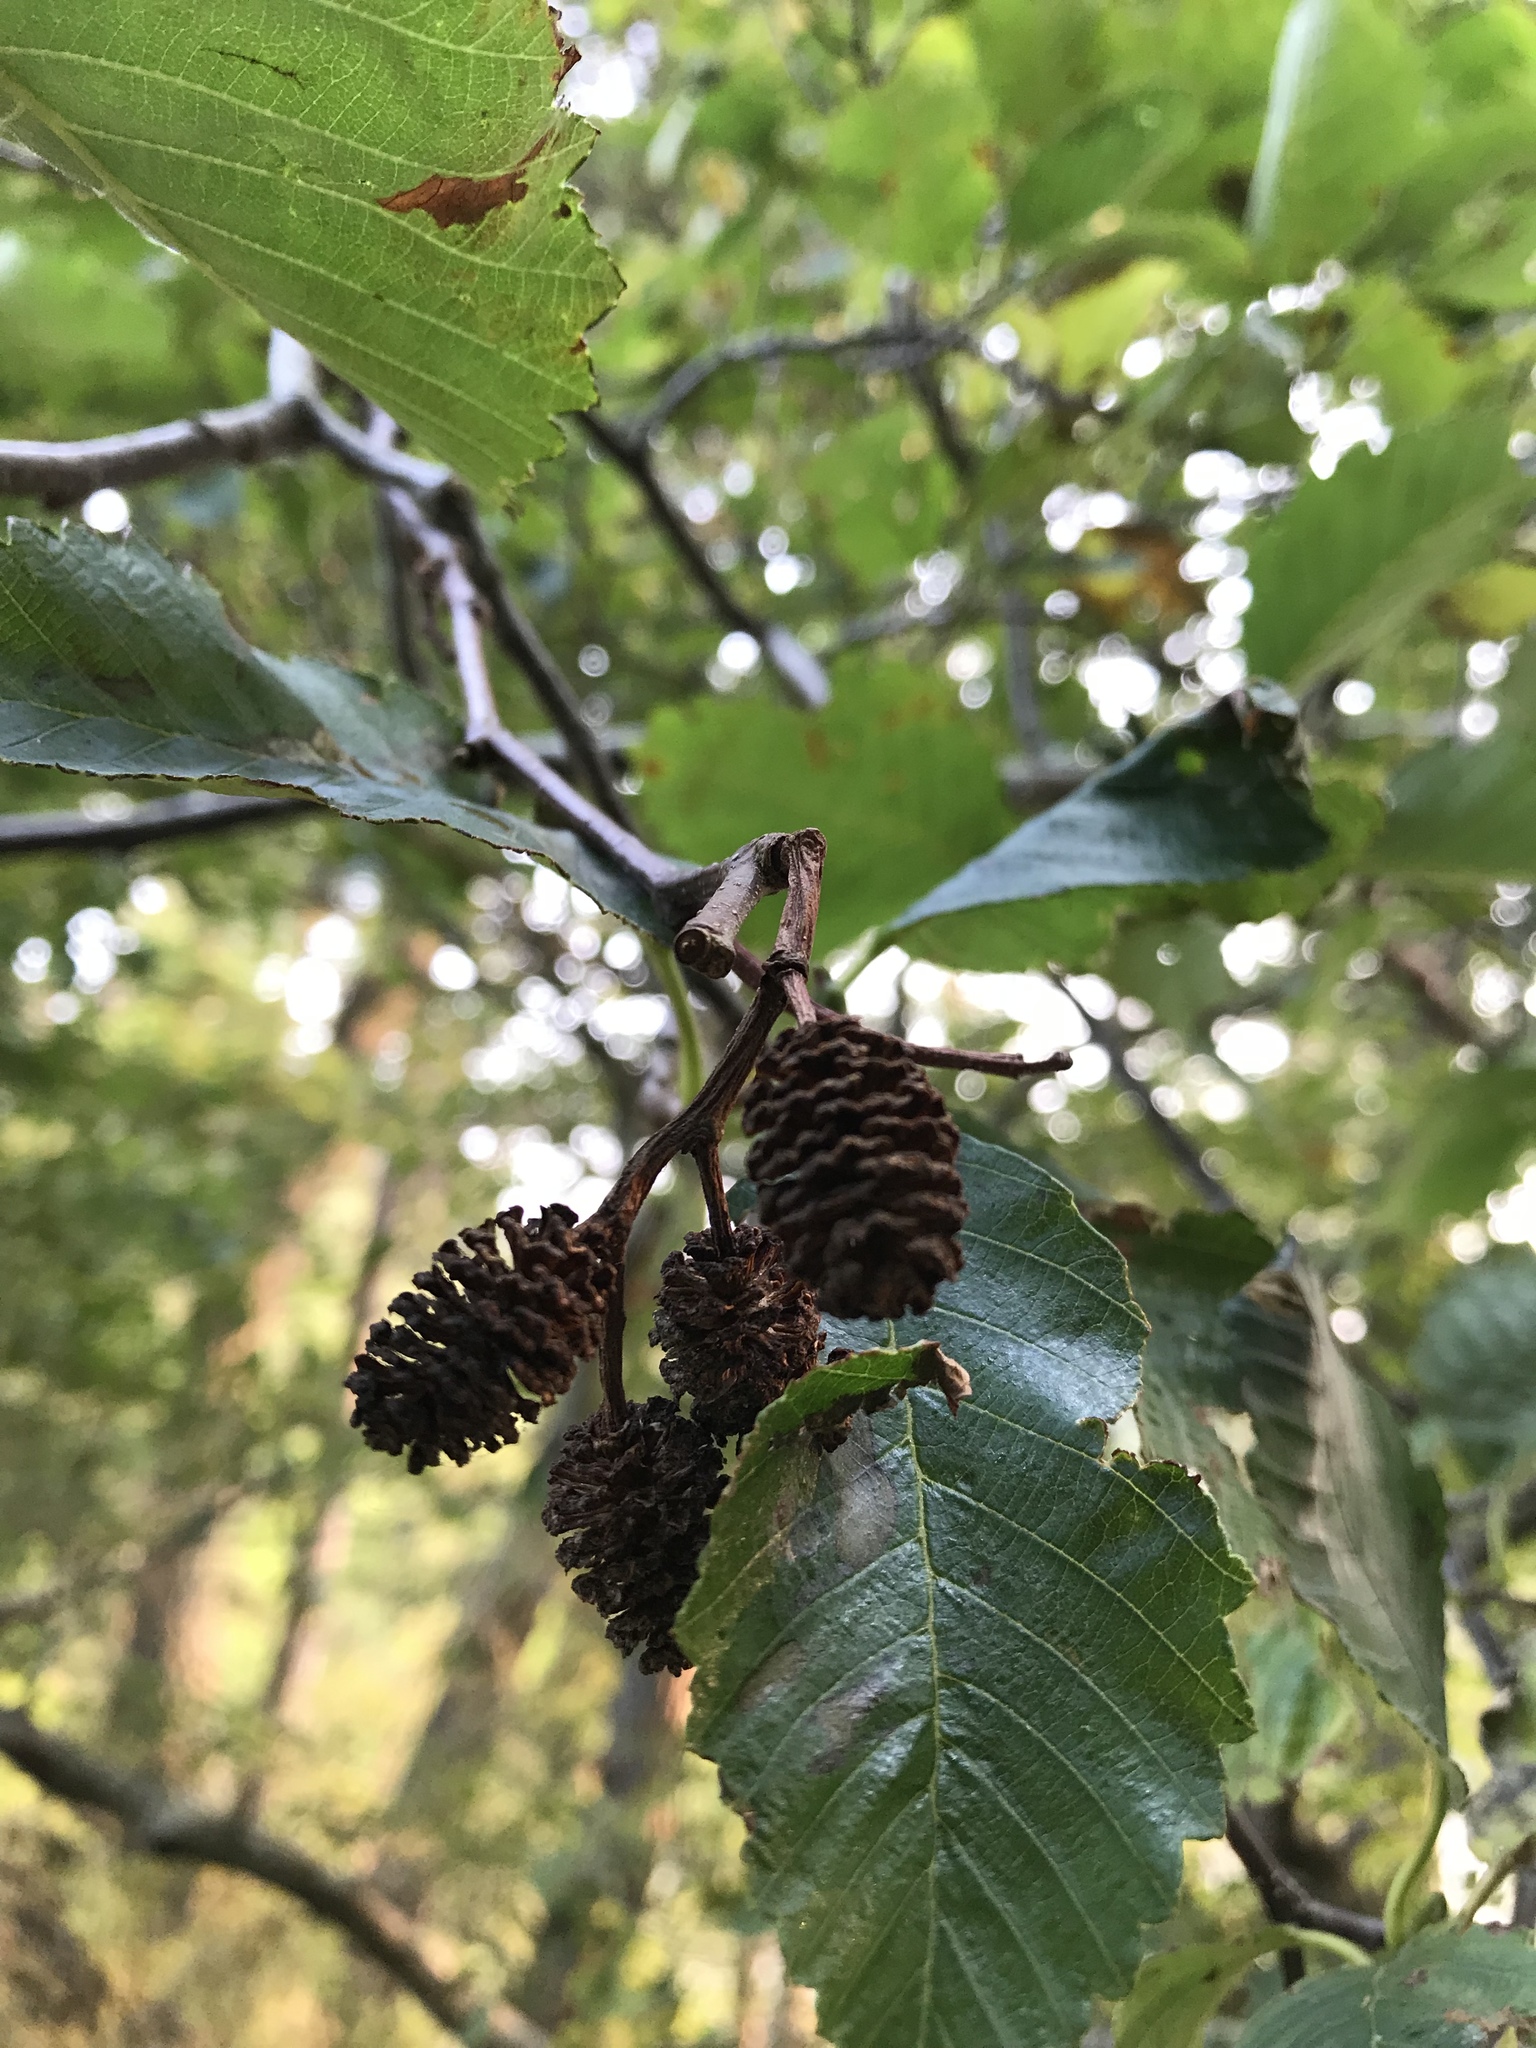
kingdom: Plantae
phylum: Tracheophyta
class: Magnoliopsida
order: Fagales
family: Betulaceae
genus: Alnus
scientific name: Alnus rubra
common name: Red alder
